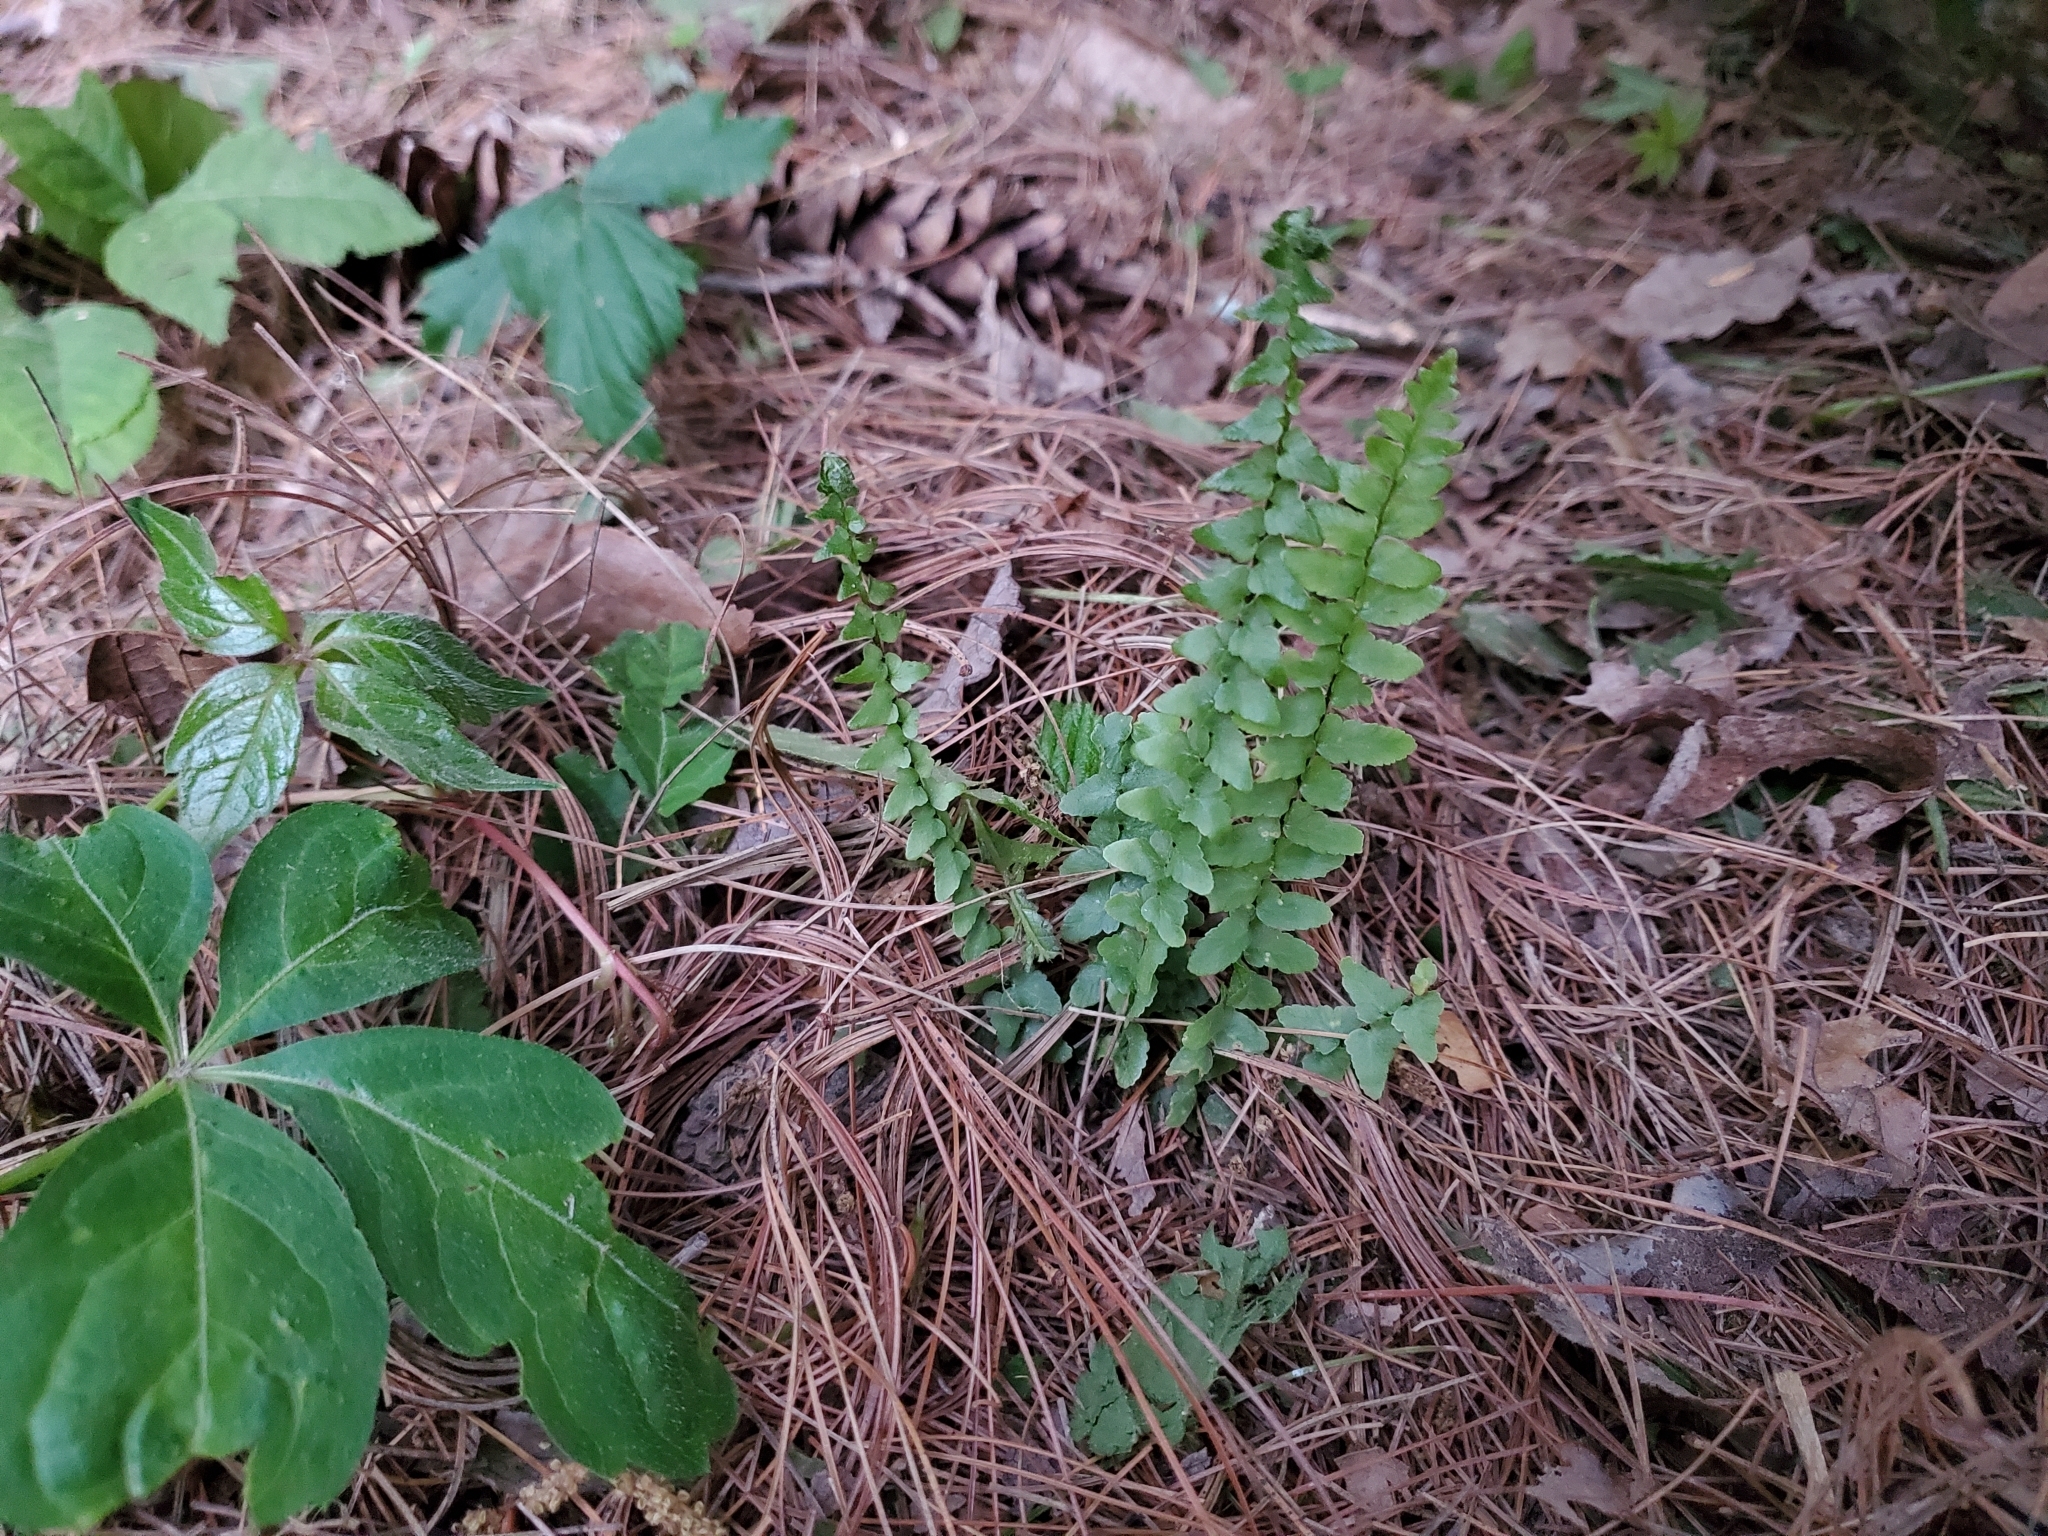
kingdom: Plantae
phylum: Tracheophyta
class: Polypodiopsida
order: Polypodiales
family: Aspleniaceae
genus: Asplenium
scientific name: Asplenium platyneuron
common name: Ebony spleenwort
